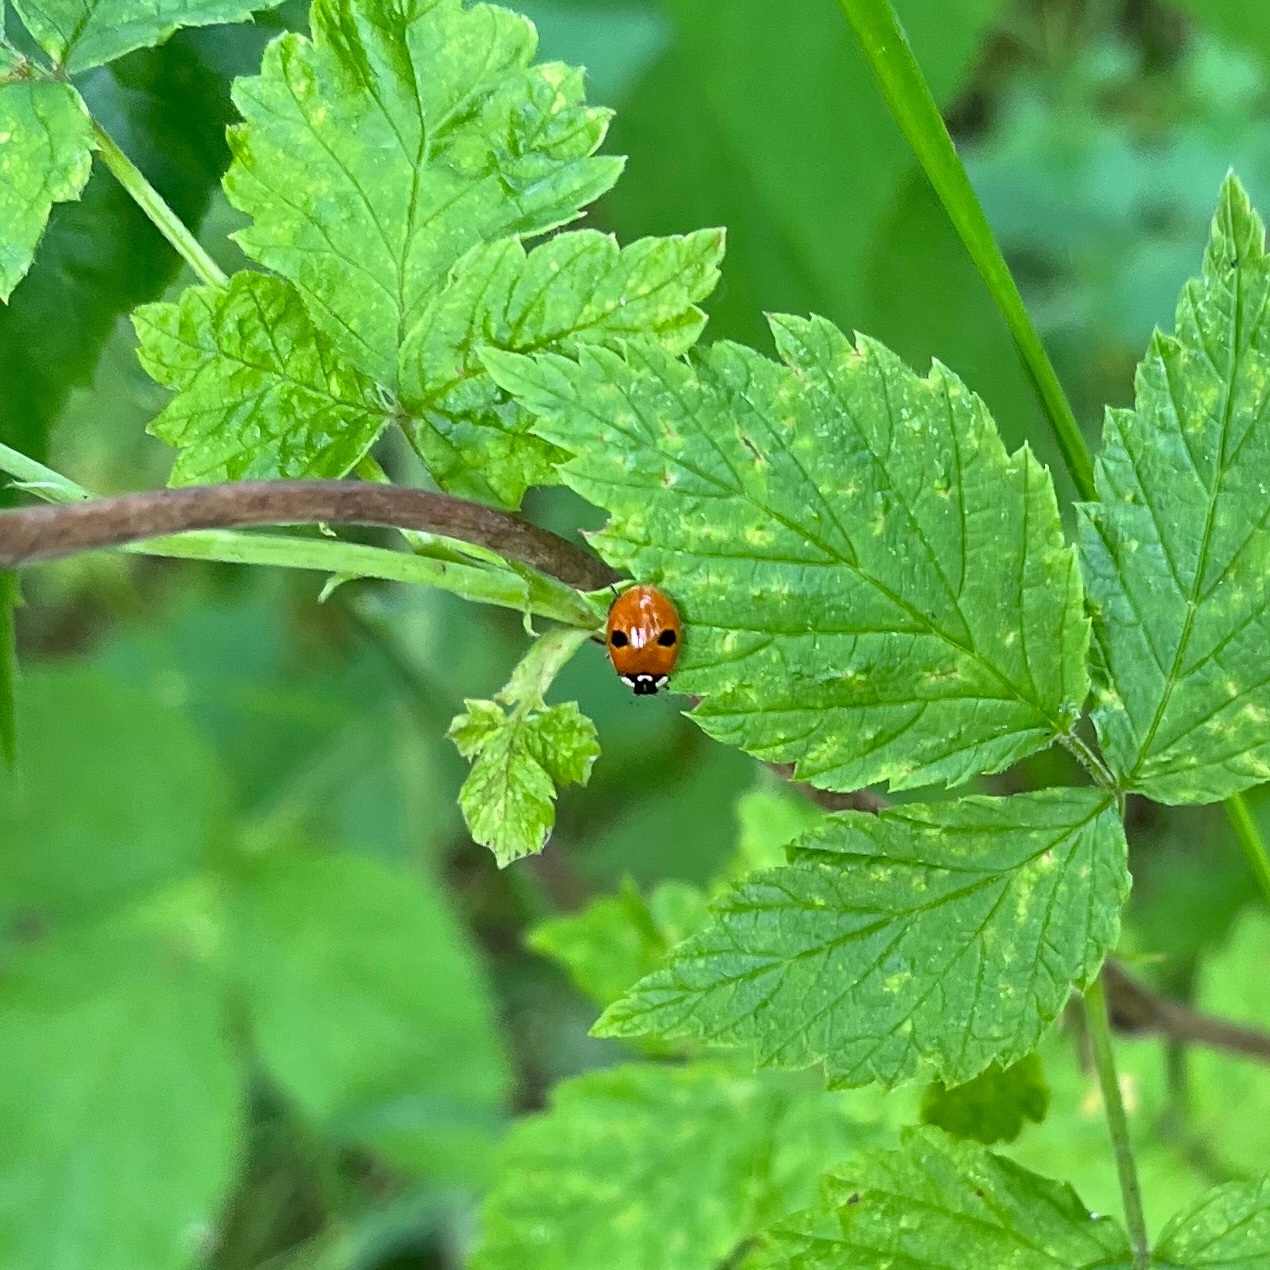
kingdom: Animalia
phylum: Arthropoda
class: Insecta
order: Coleoptera
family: Coccinellidae
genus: Adalia
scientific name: Adalia bipunctata
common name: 2-spot ladybird
